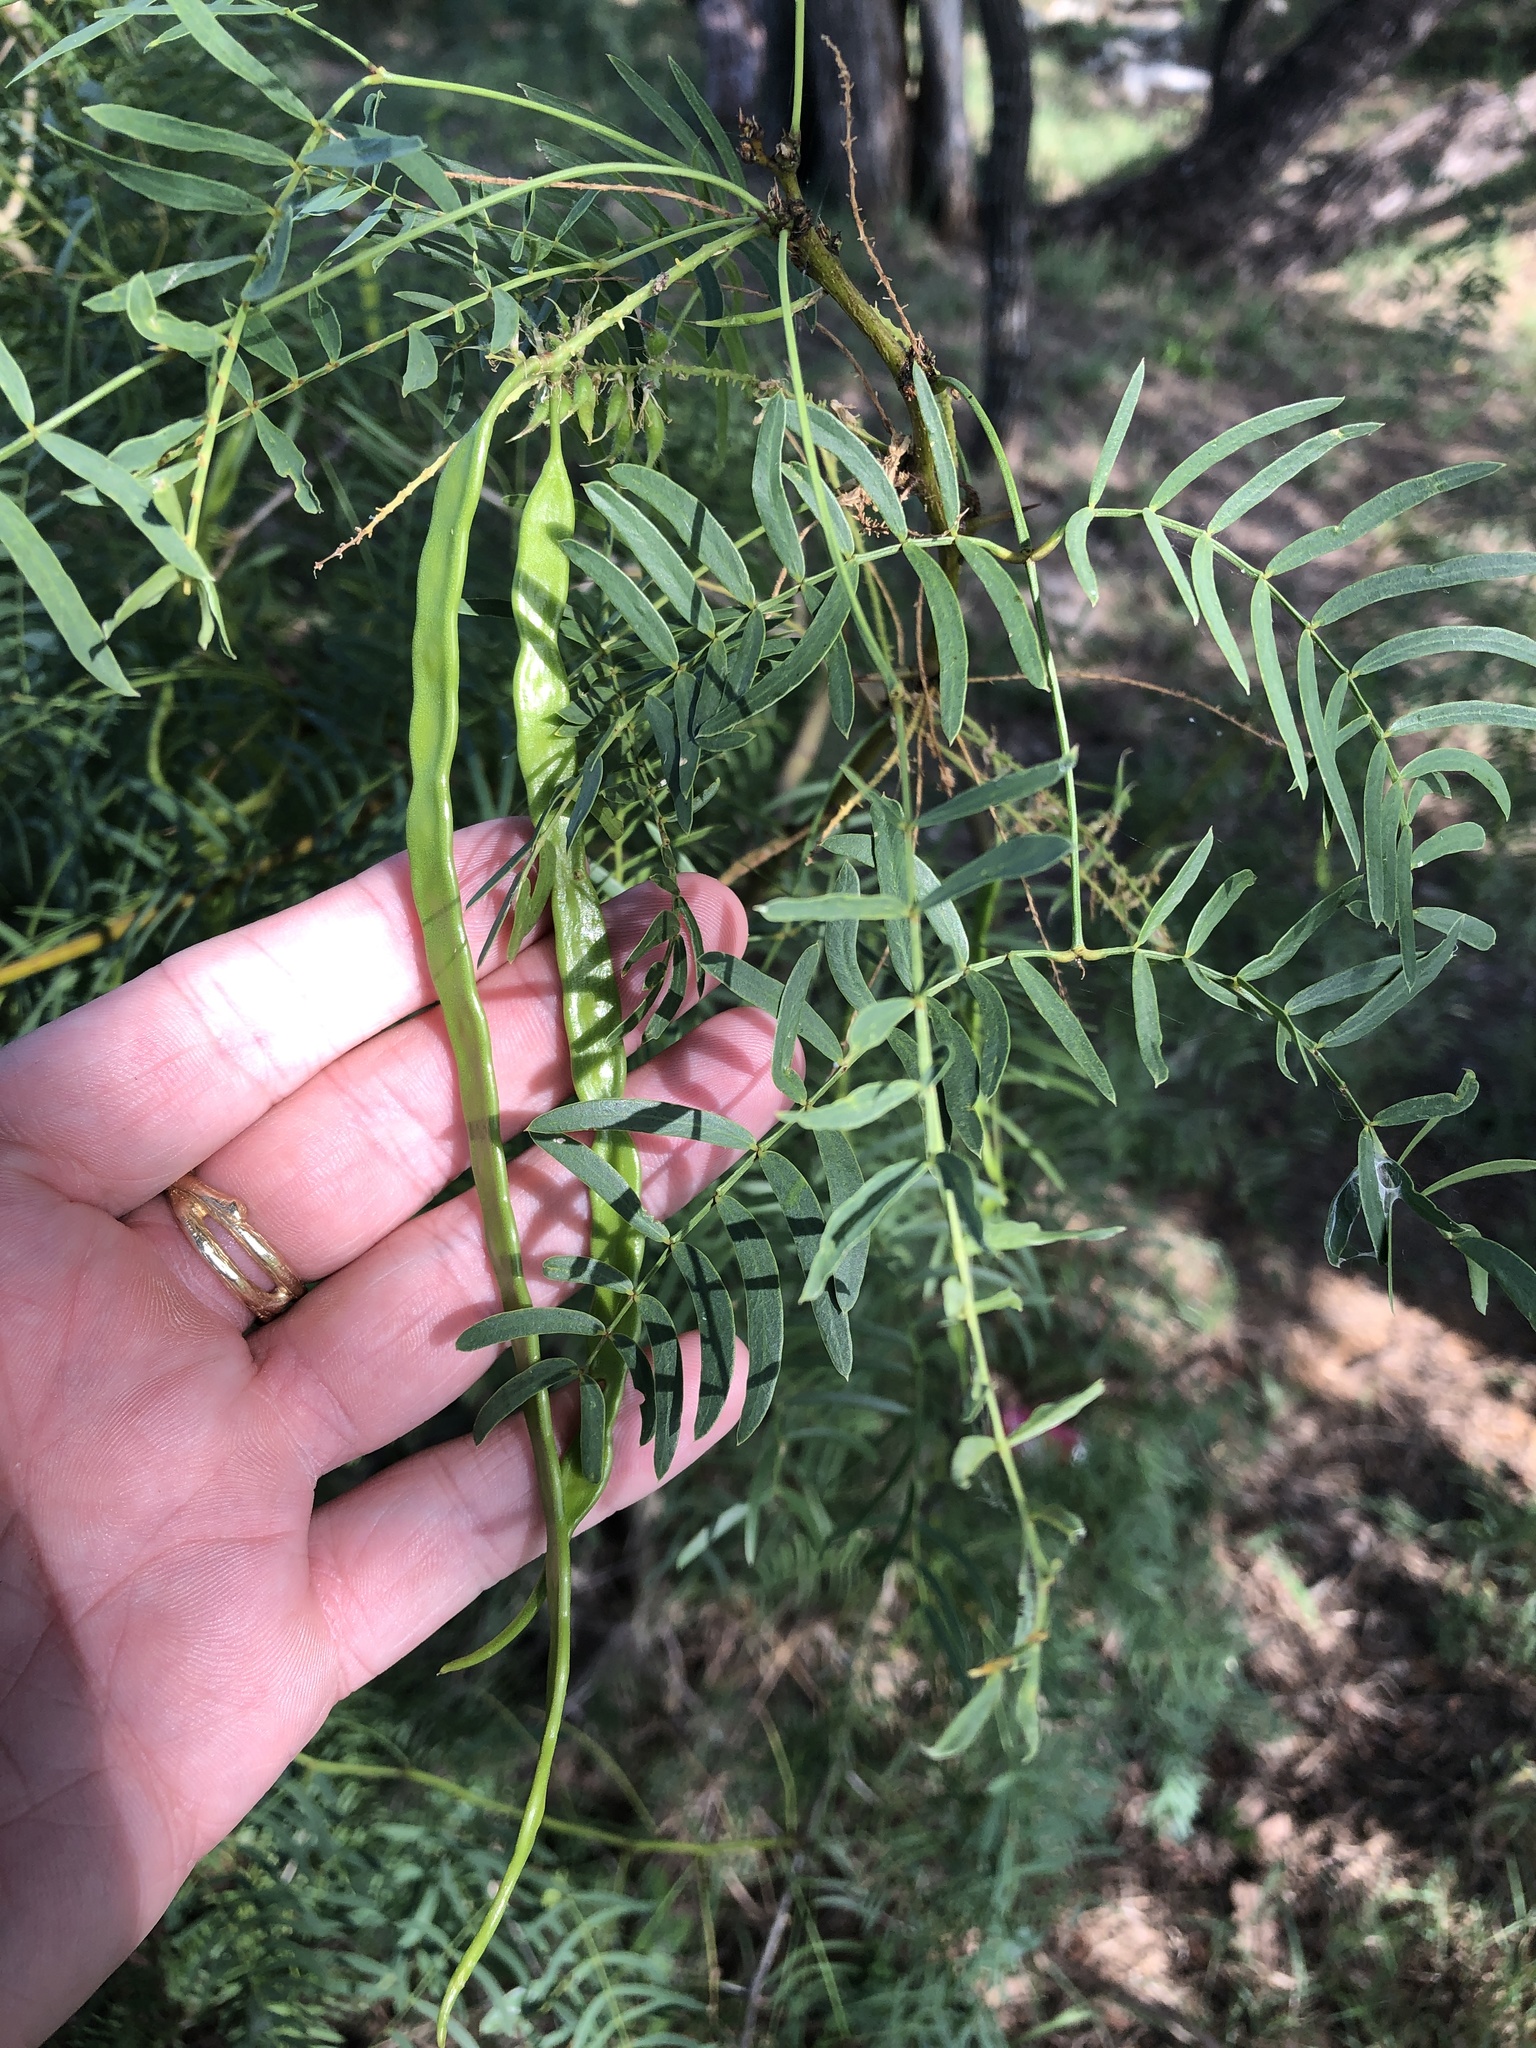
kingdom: Plantae
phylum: Tracheophyta
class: Magnoliopsida
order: Fabales
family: Fabaceae
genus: Prosopis
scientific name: Prosopis glandulosa
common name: Honey mesquite
